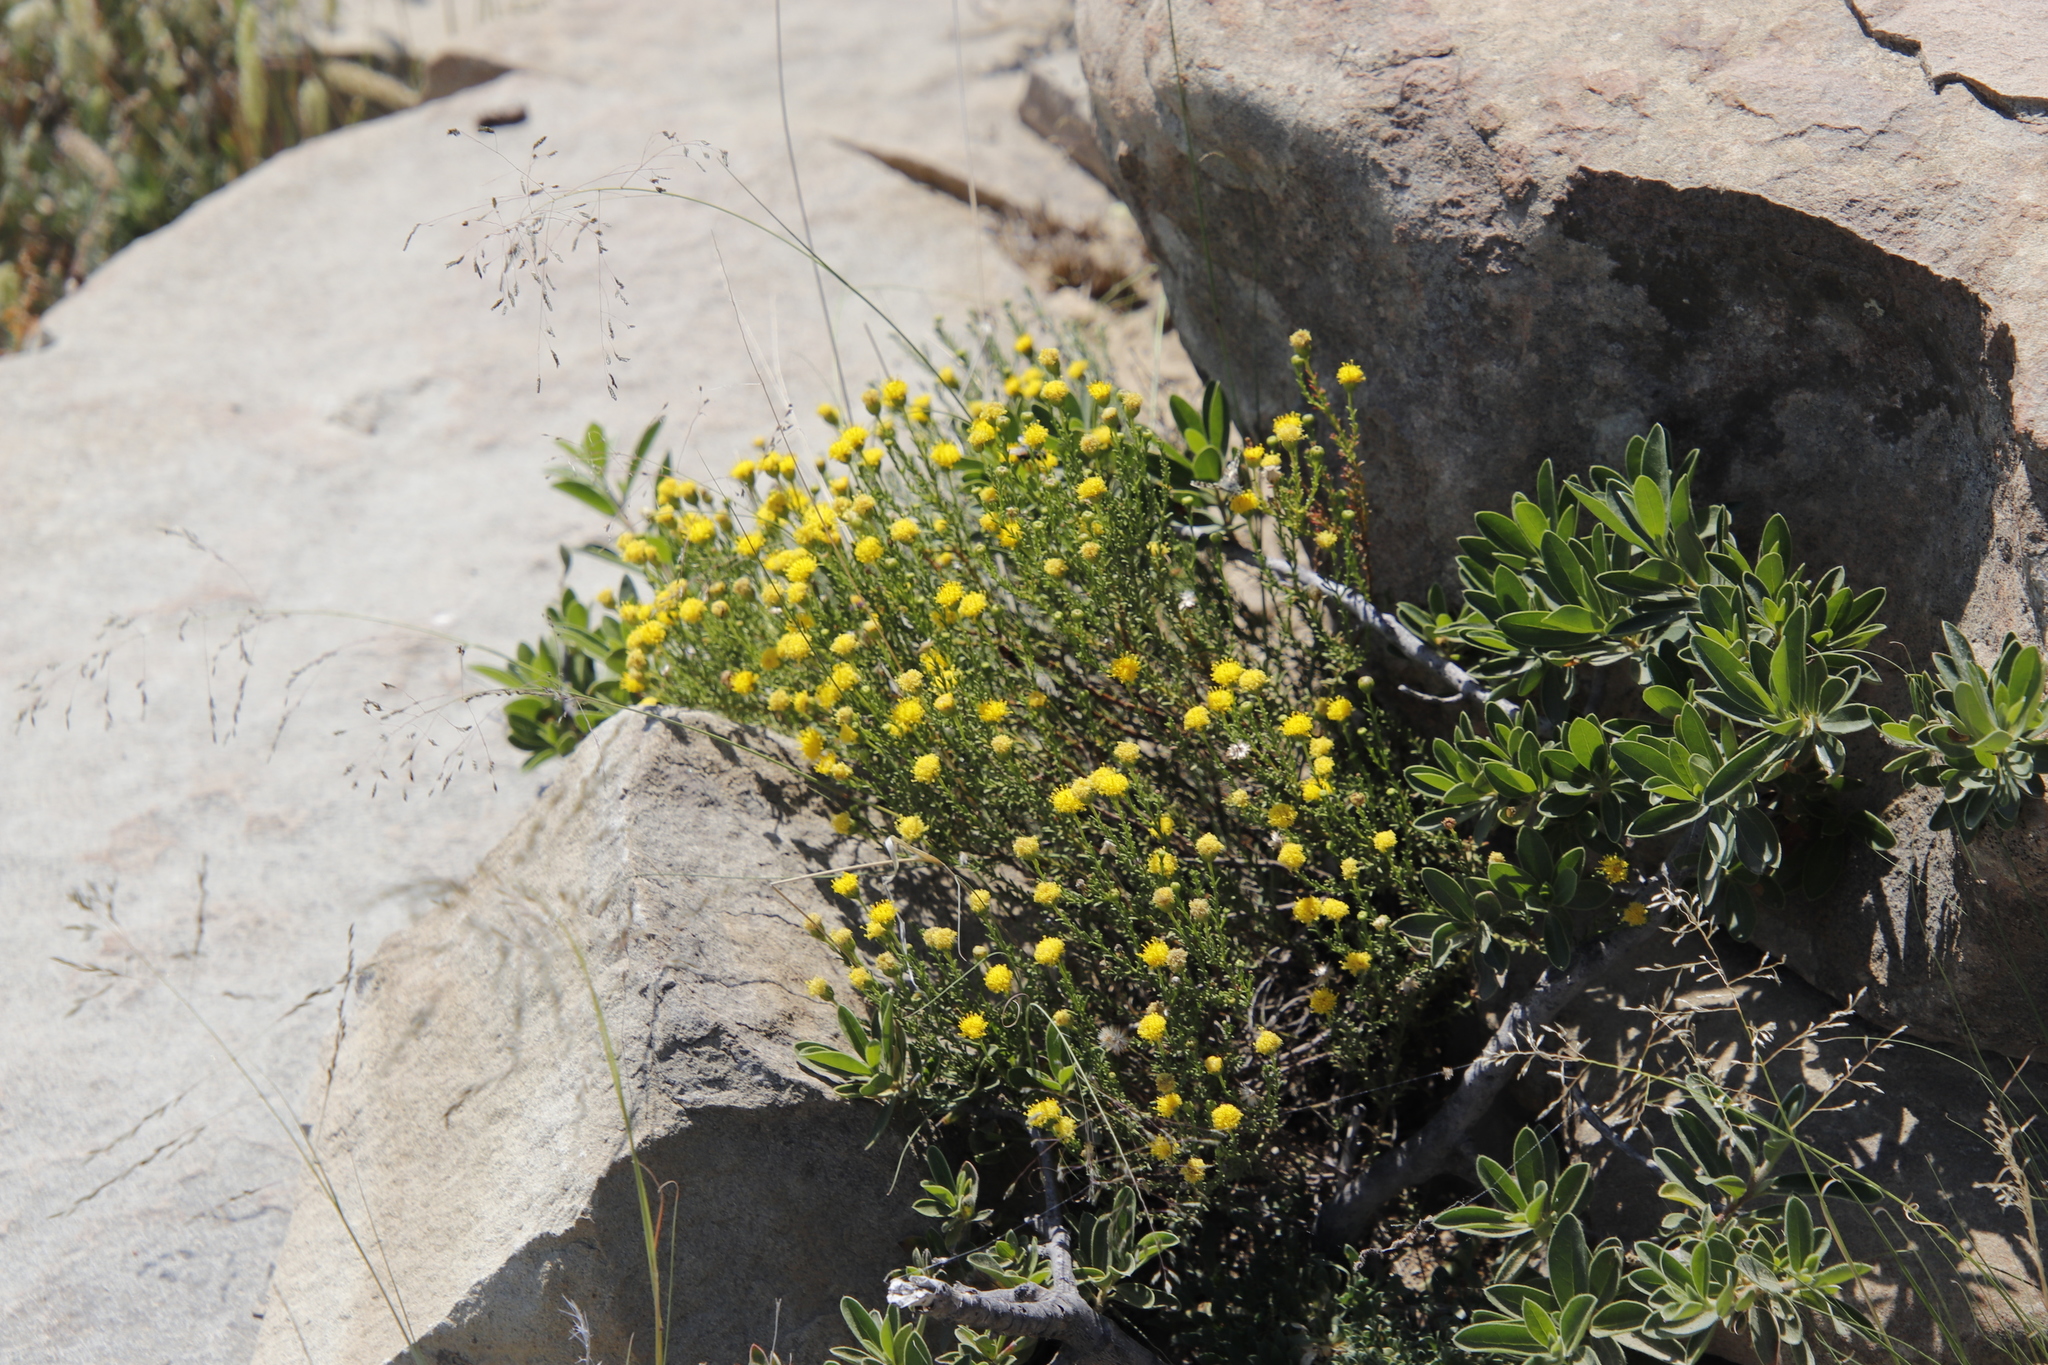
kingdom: Plantae
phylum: Tracheophyta
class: Magnoliopsida
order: Asterales
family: Asteraceae
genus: Chrysocoma
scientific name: Chrysocoma ciliata
